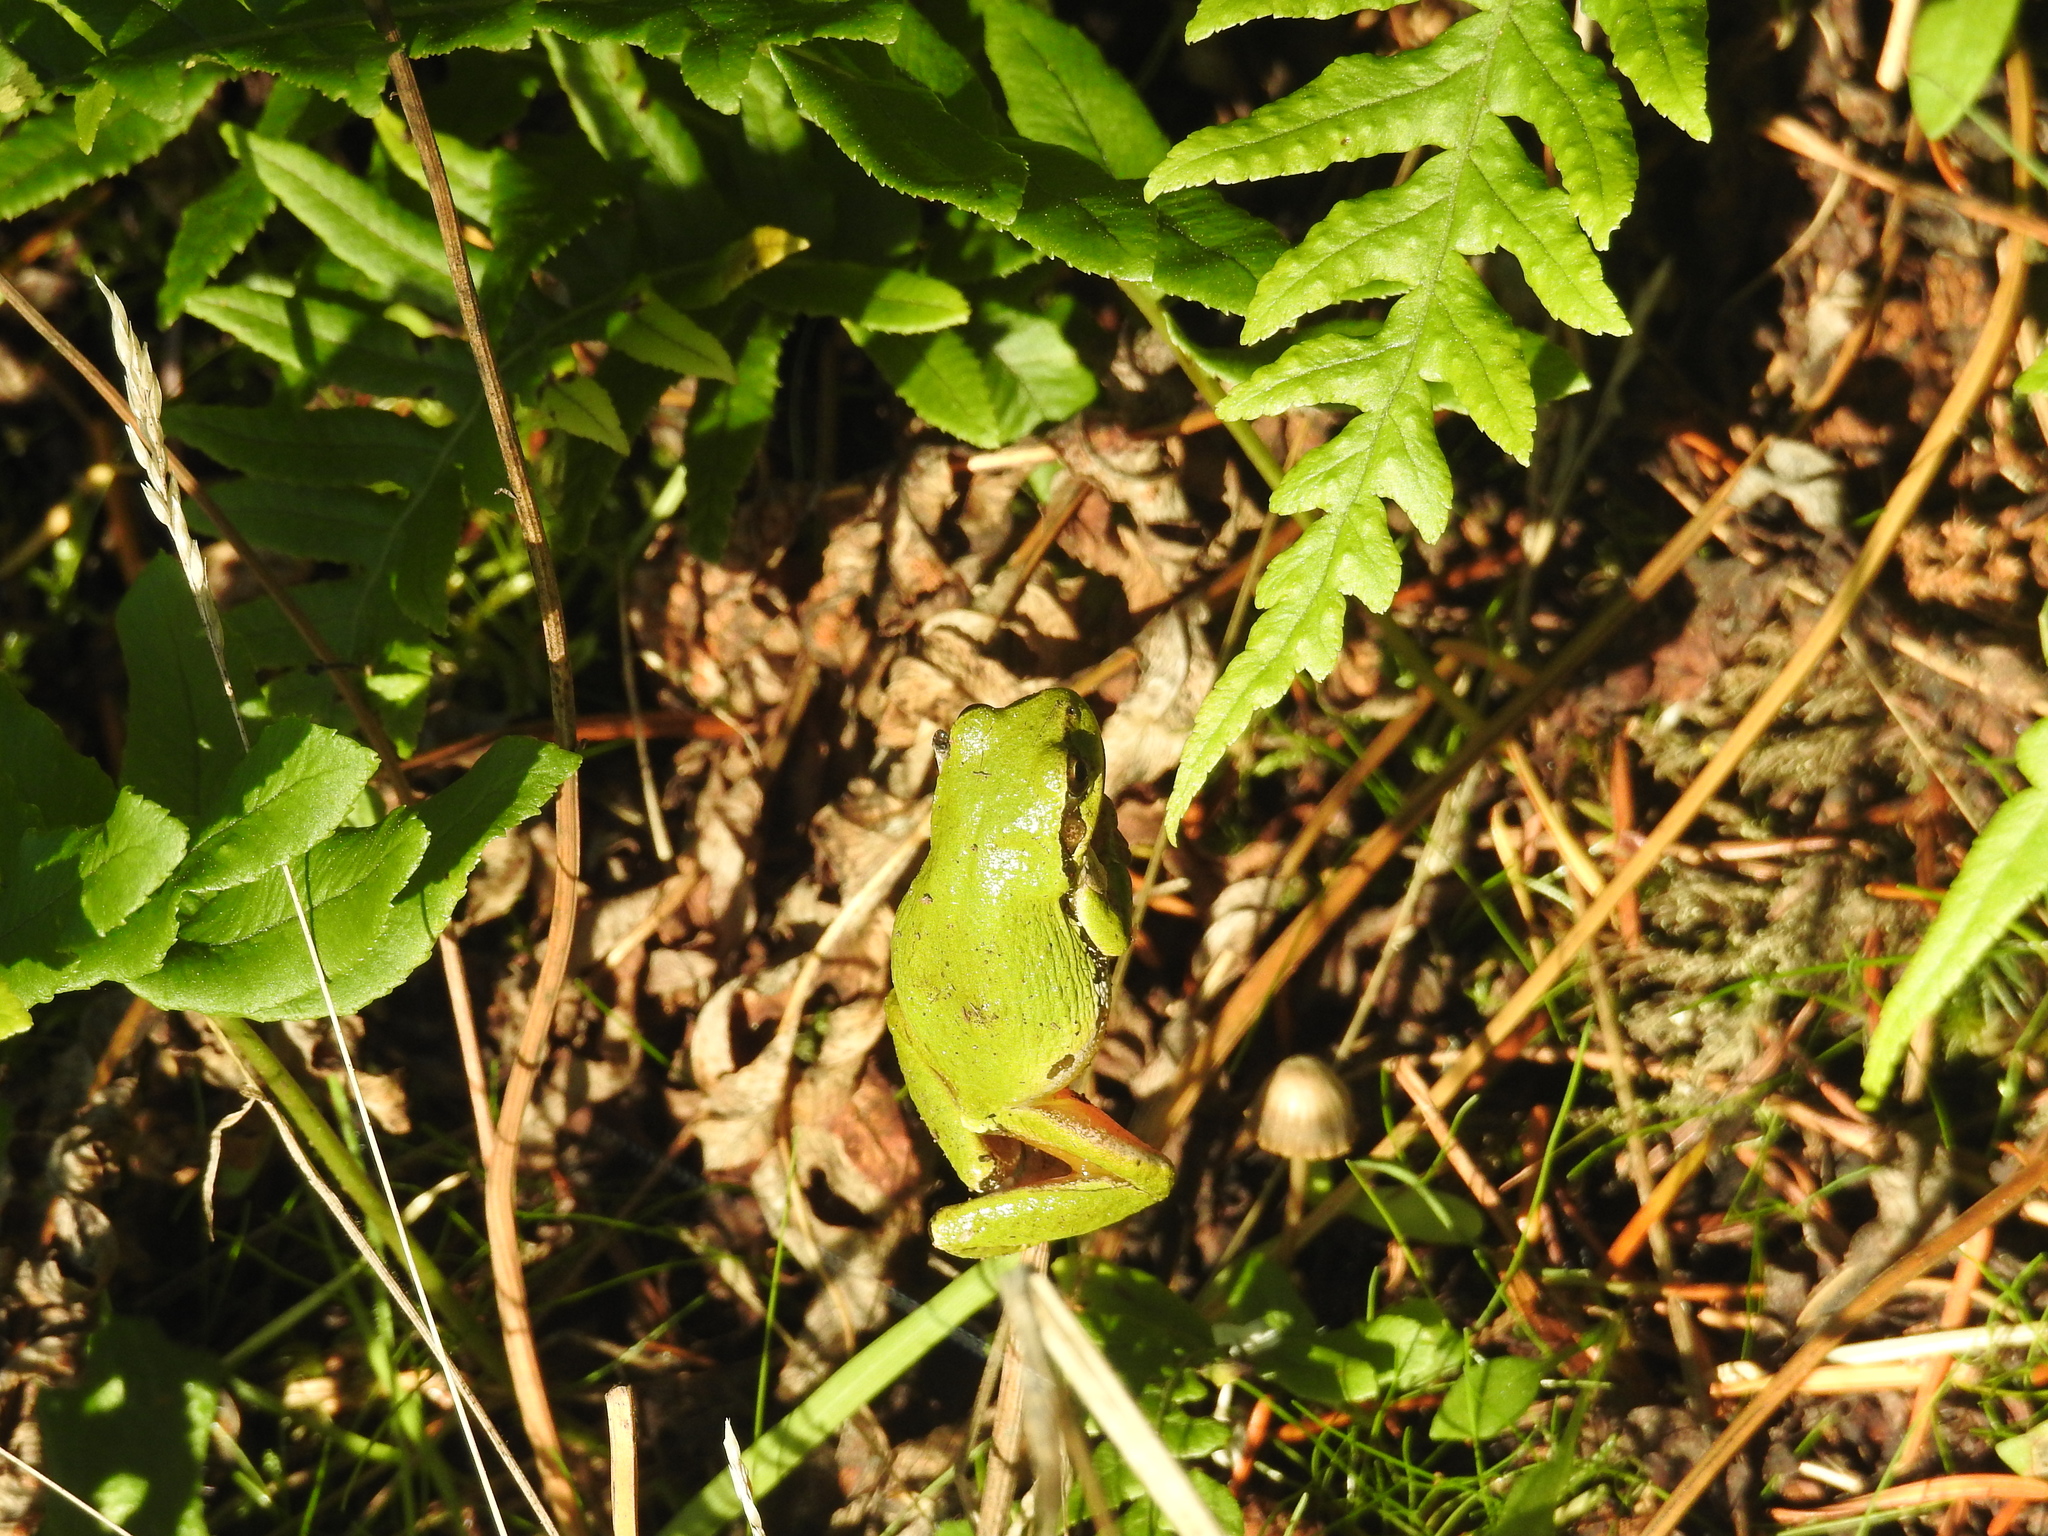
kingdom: Animalia
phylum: Chordata
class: Amphibia
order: Anura
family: Hylidae
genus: Pseudacris
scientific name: Pseudacris regilla
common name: Pacific chorus frog
